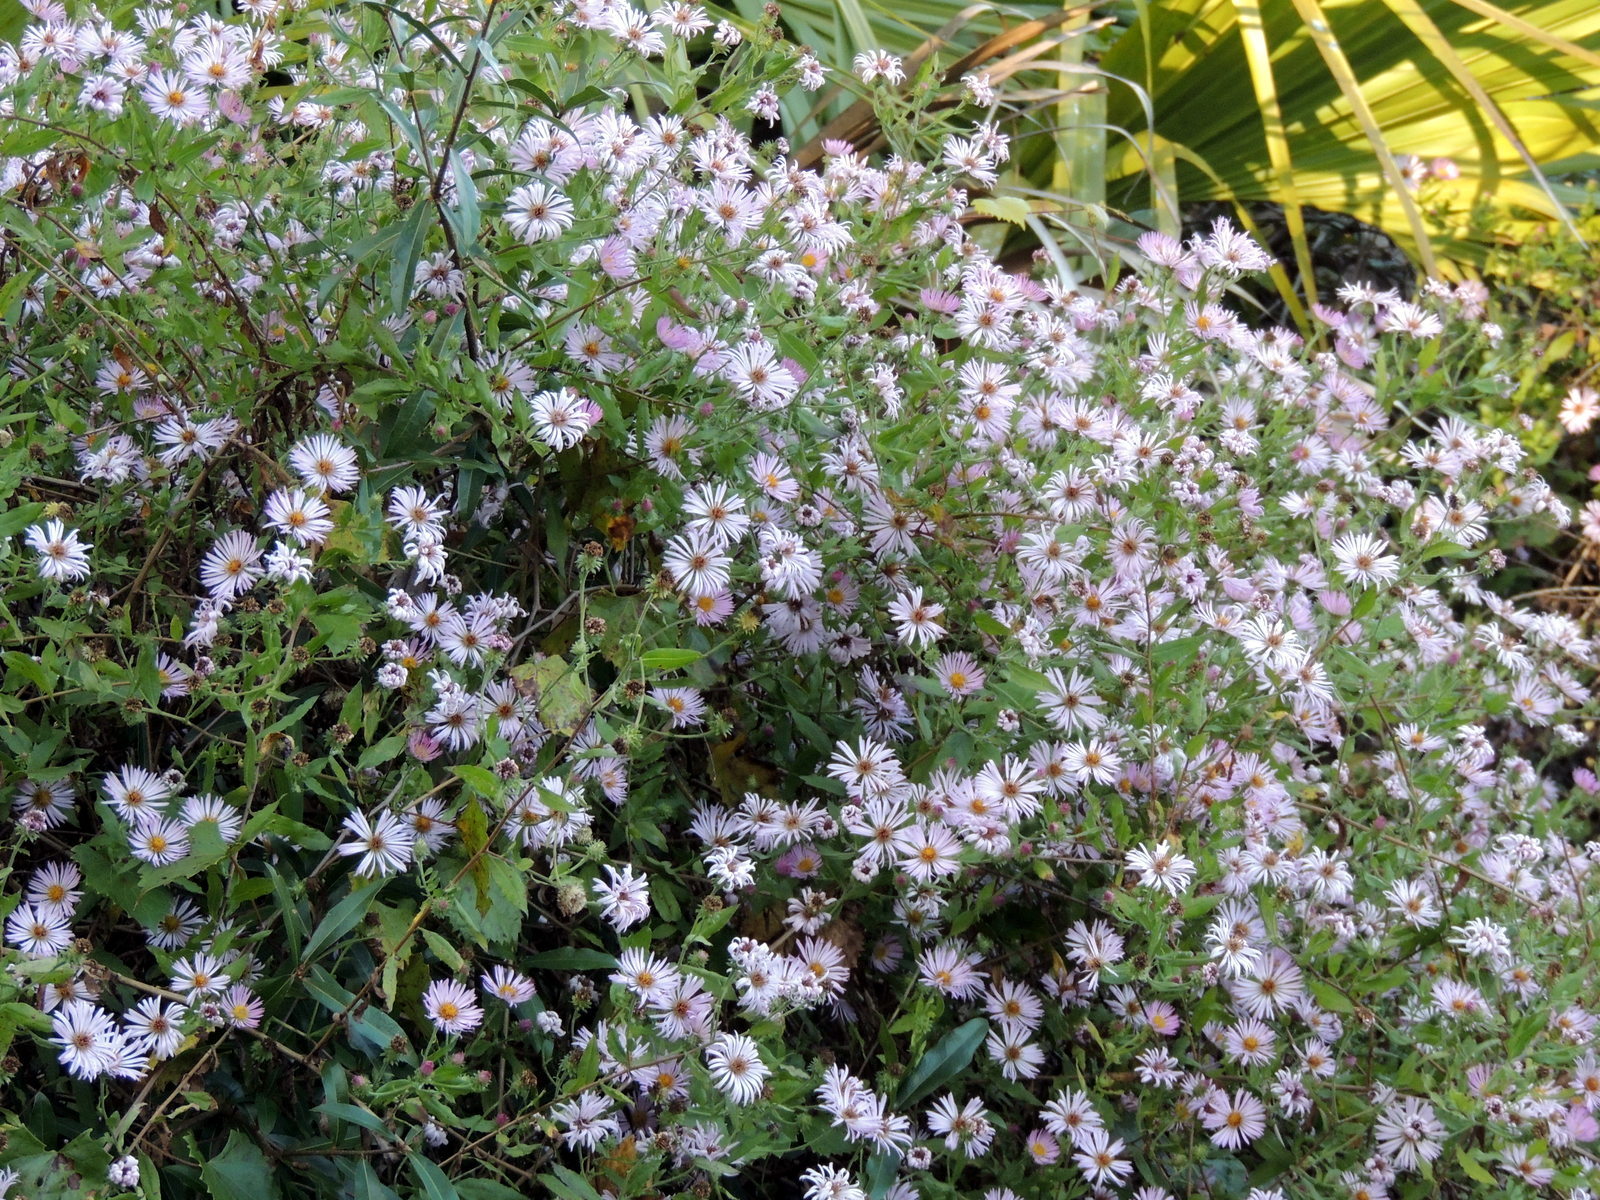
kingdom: Plantae
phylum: Tracheophyta
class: Magnoliopsida
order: Asterales
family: Asteraceae
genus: Ampelaster
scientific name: Ampelaster carolinianus
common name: Climbing aster
